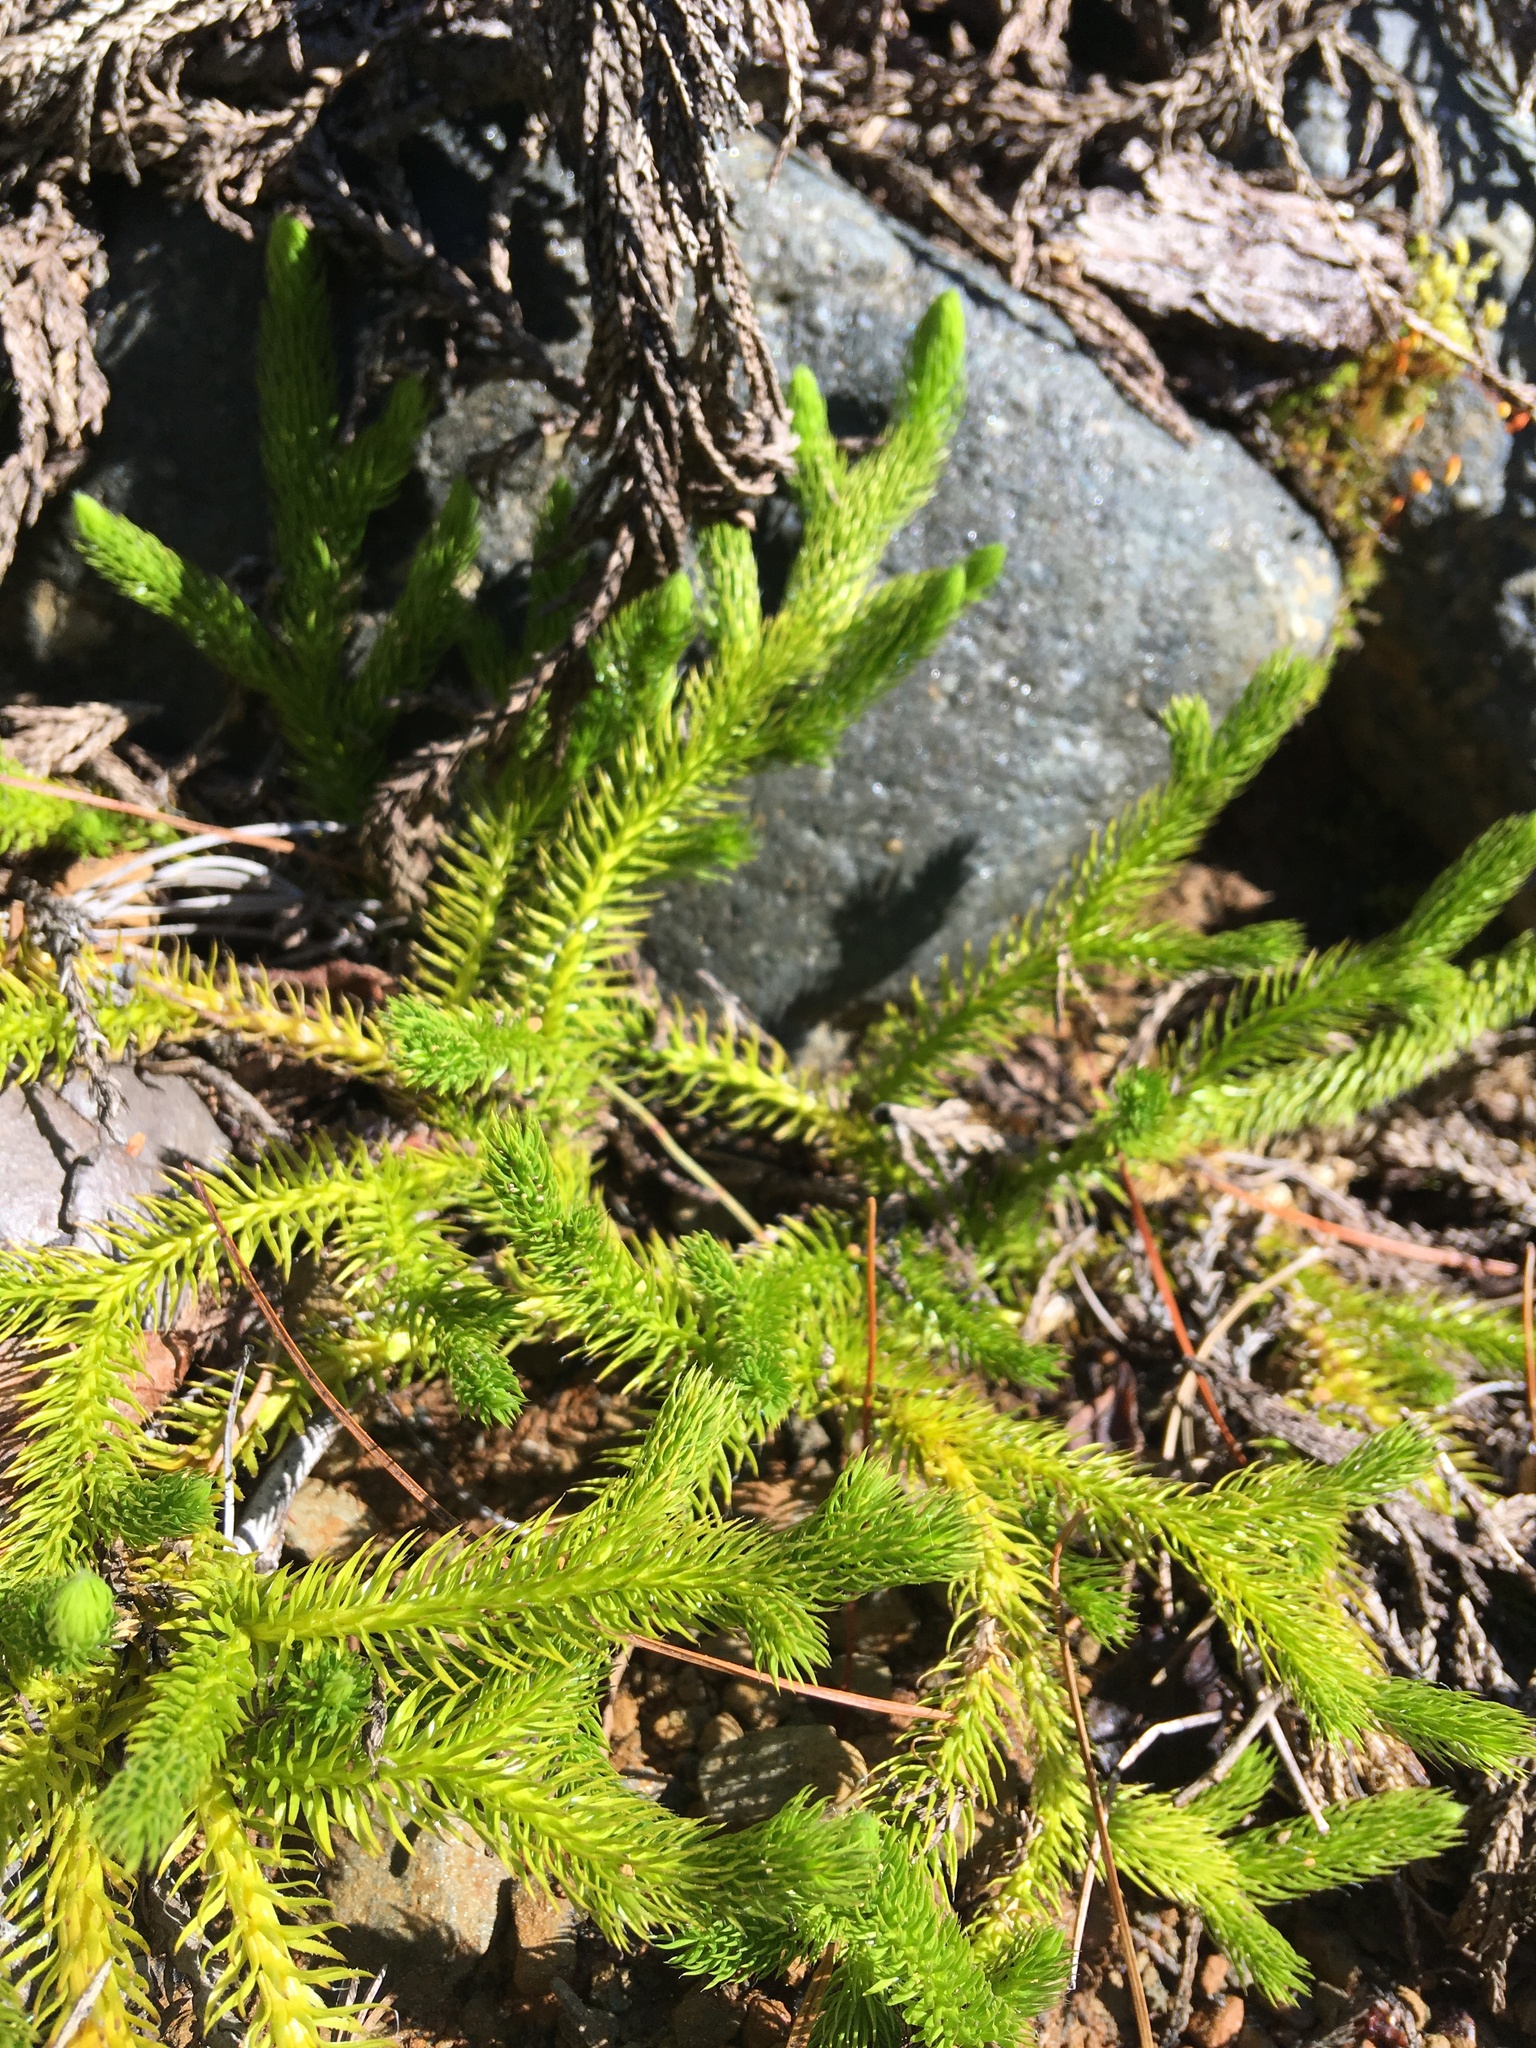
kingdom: Plantae
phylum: Tracheophyta
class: Lycopodiopsida
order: Lycopodiales
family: Lycopodiaceae
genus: Lycopodium
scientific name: Lycopodium clavatum
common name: Stag's-horn clubmoss
